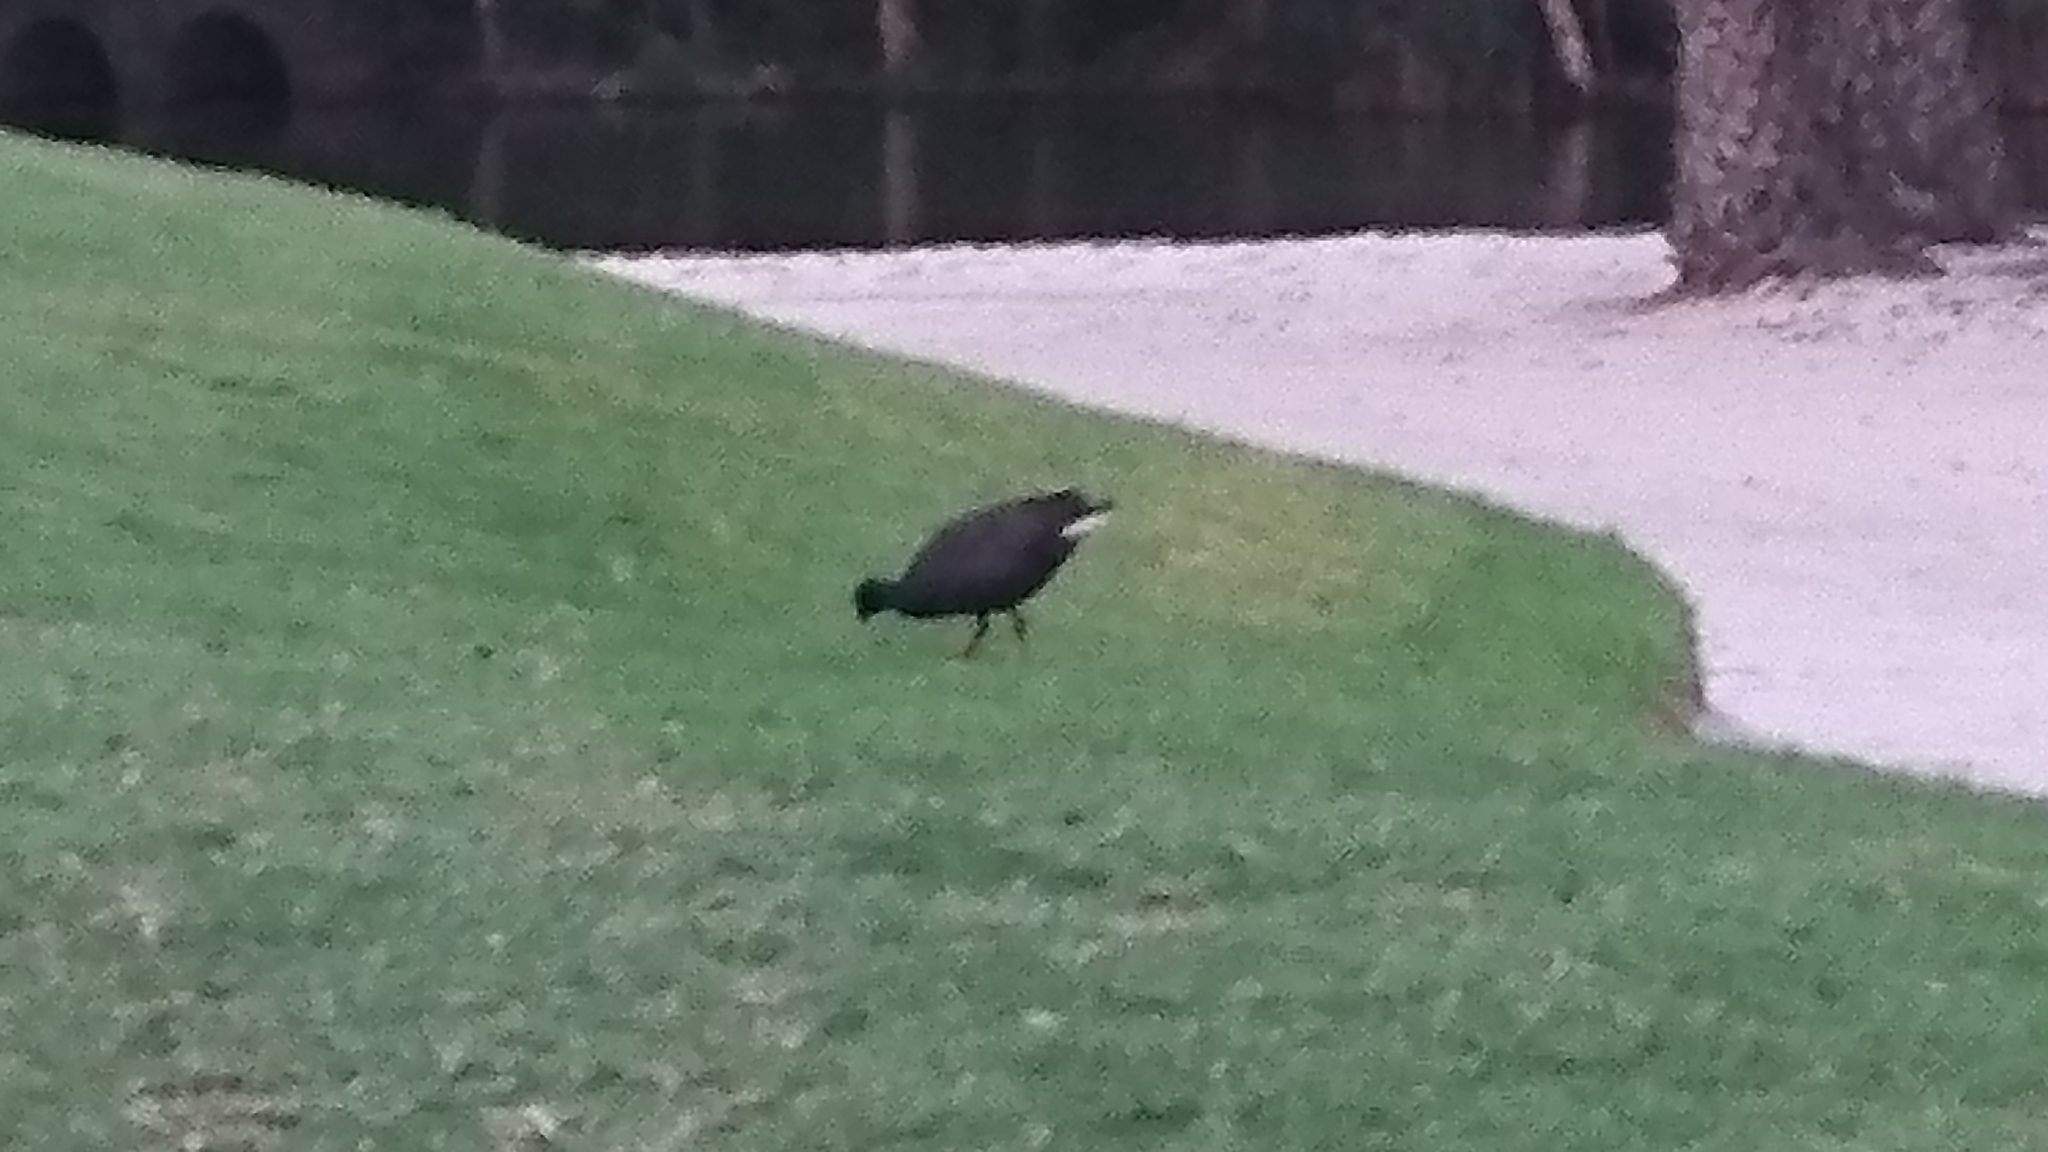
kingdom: Animalia
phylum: Chordata
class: Aves
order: Gruiformes
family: Rallidae
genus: Gallinula
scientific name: Gallinula tenebrosa
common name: Dusky moorhen
